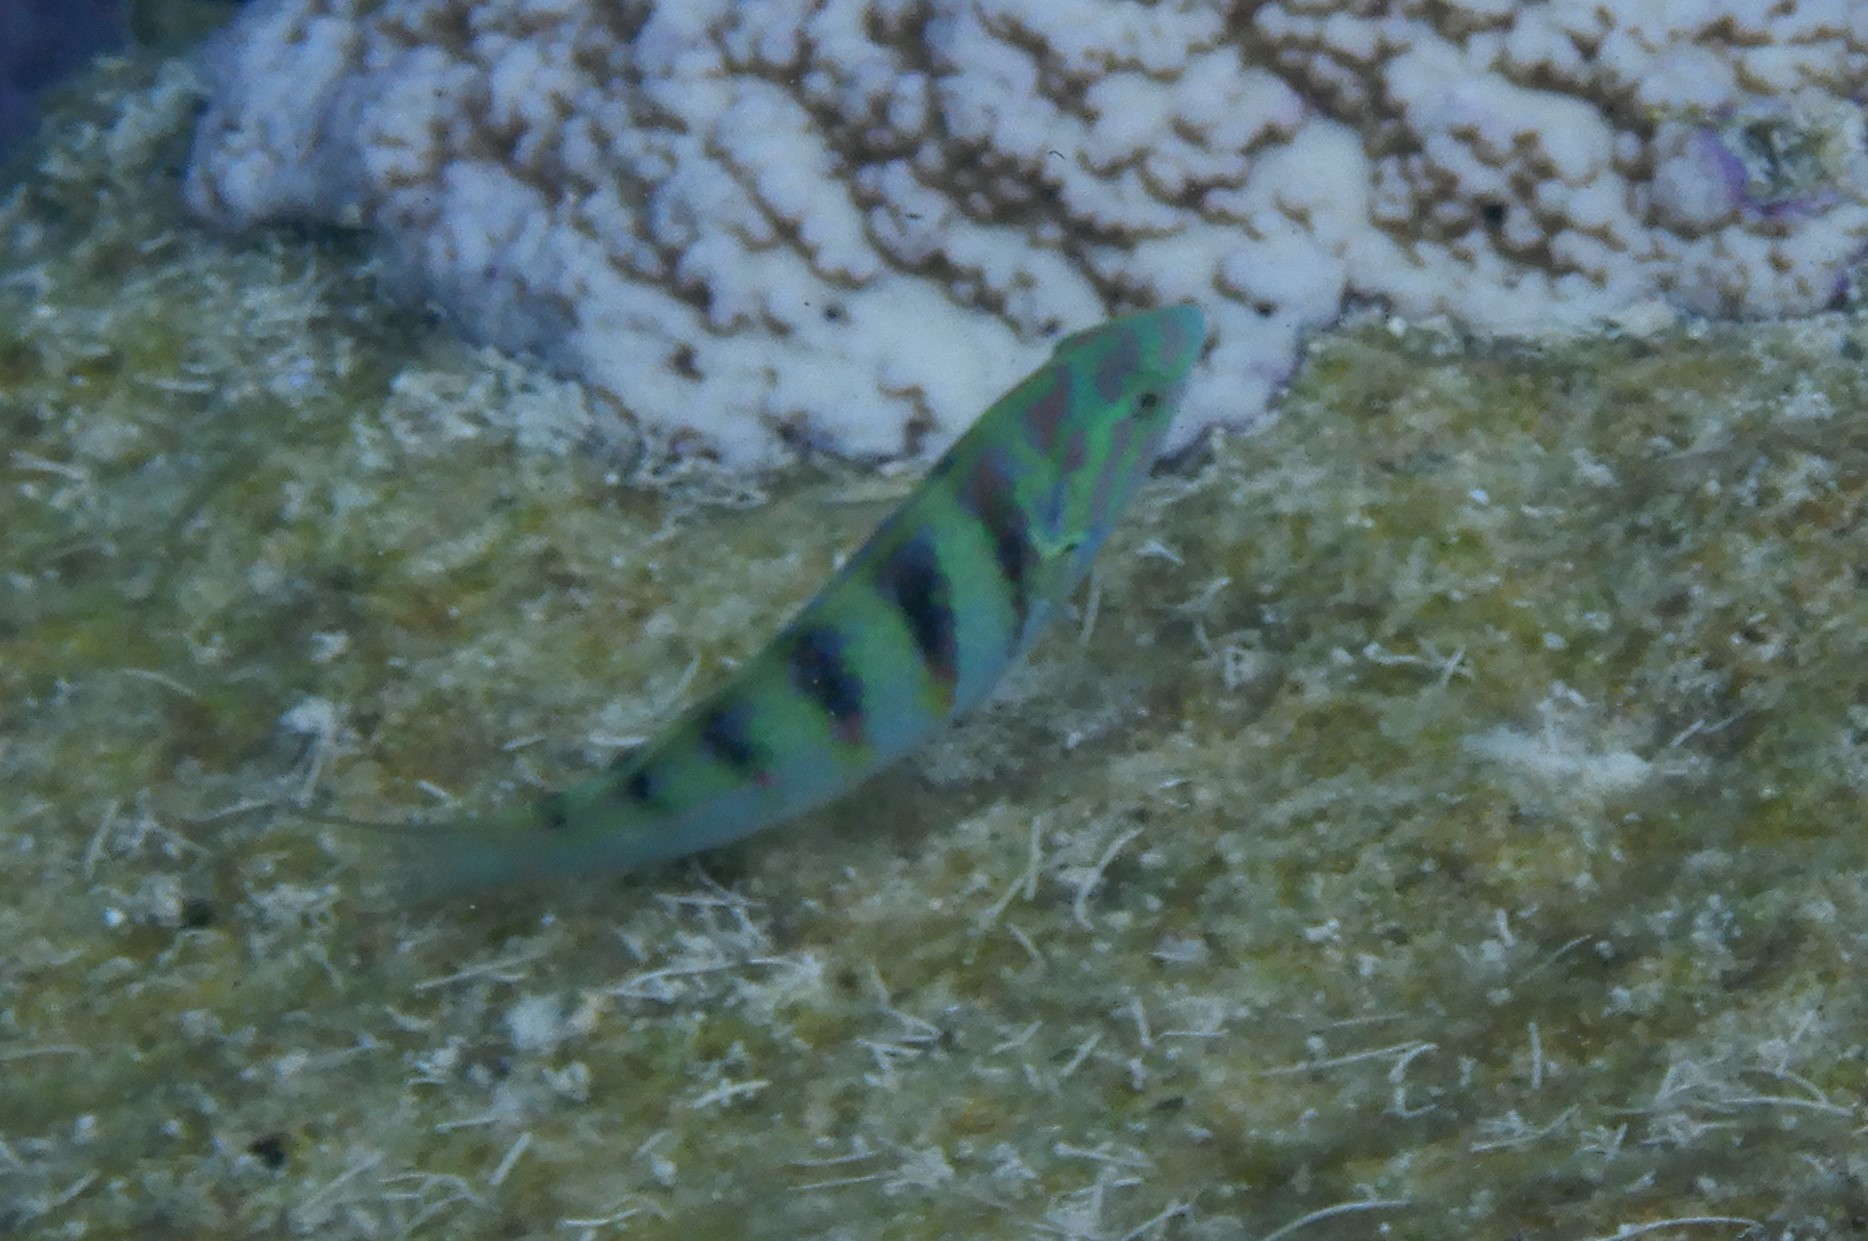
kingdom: Animalia
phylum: Chordata
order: Perciformes
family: Labridae
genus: Thalassoma
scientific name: Thalassoma hardwicke
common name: Sixbar wrasse
